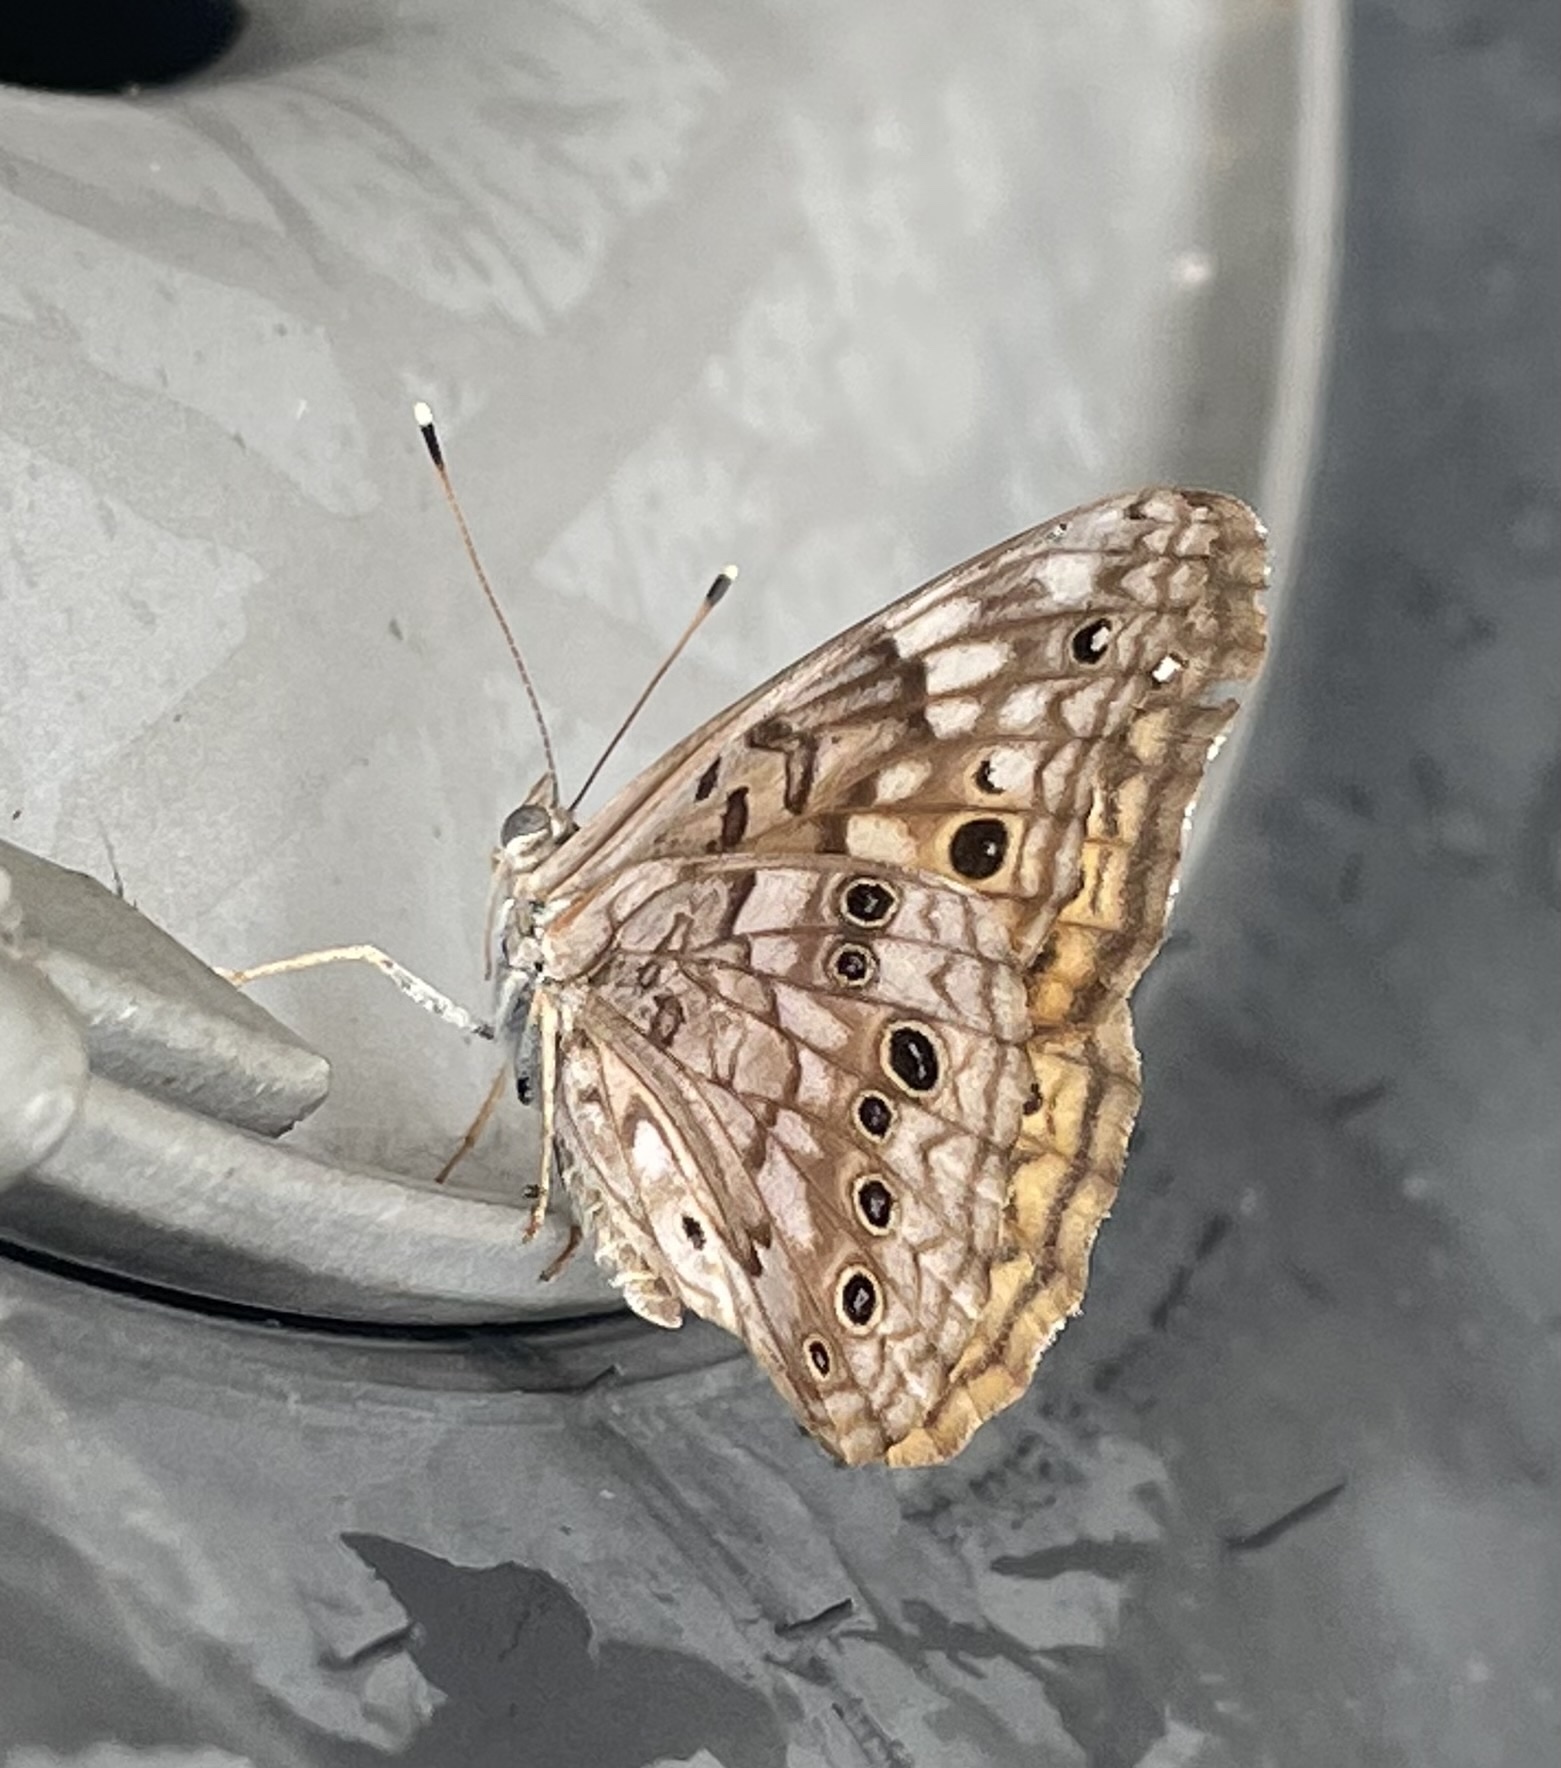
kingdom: Animalia
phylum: Arthropoda
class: Insecta
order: Lepidoptera
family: Nymphalidae
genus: Asterocampa
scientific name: Asterocampa celtis
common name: Hackberry emperor
